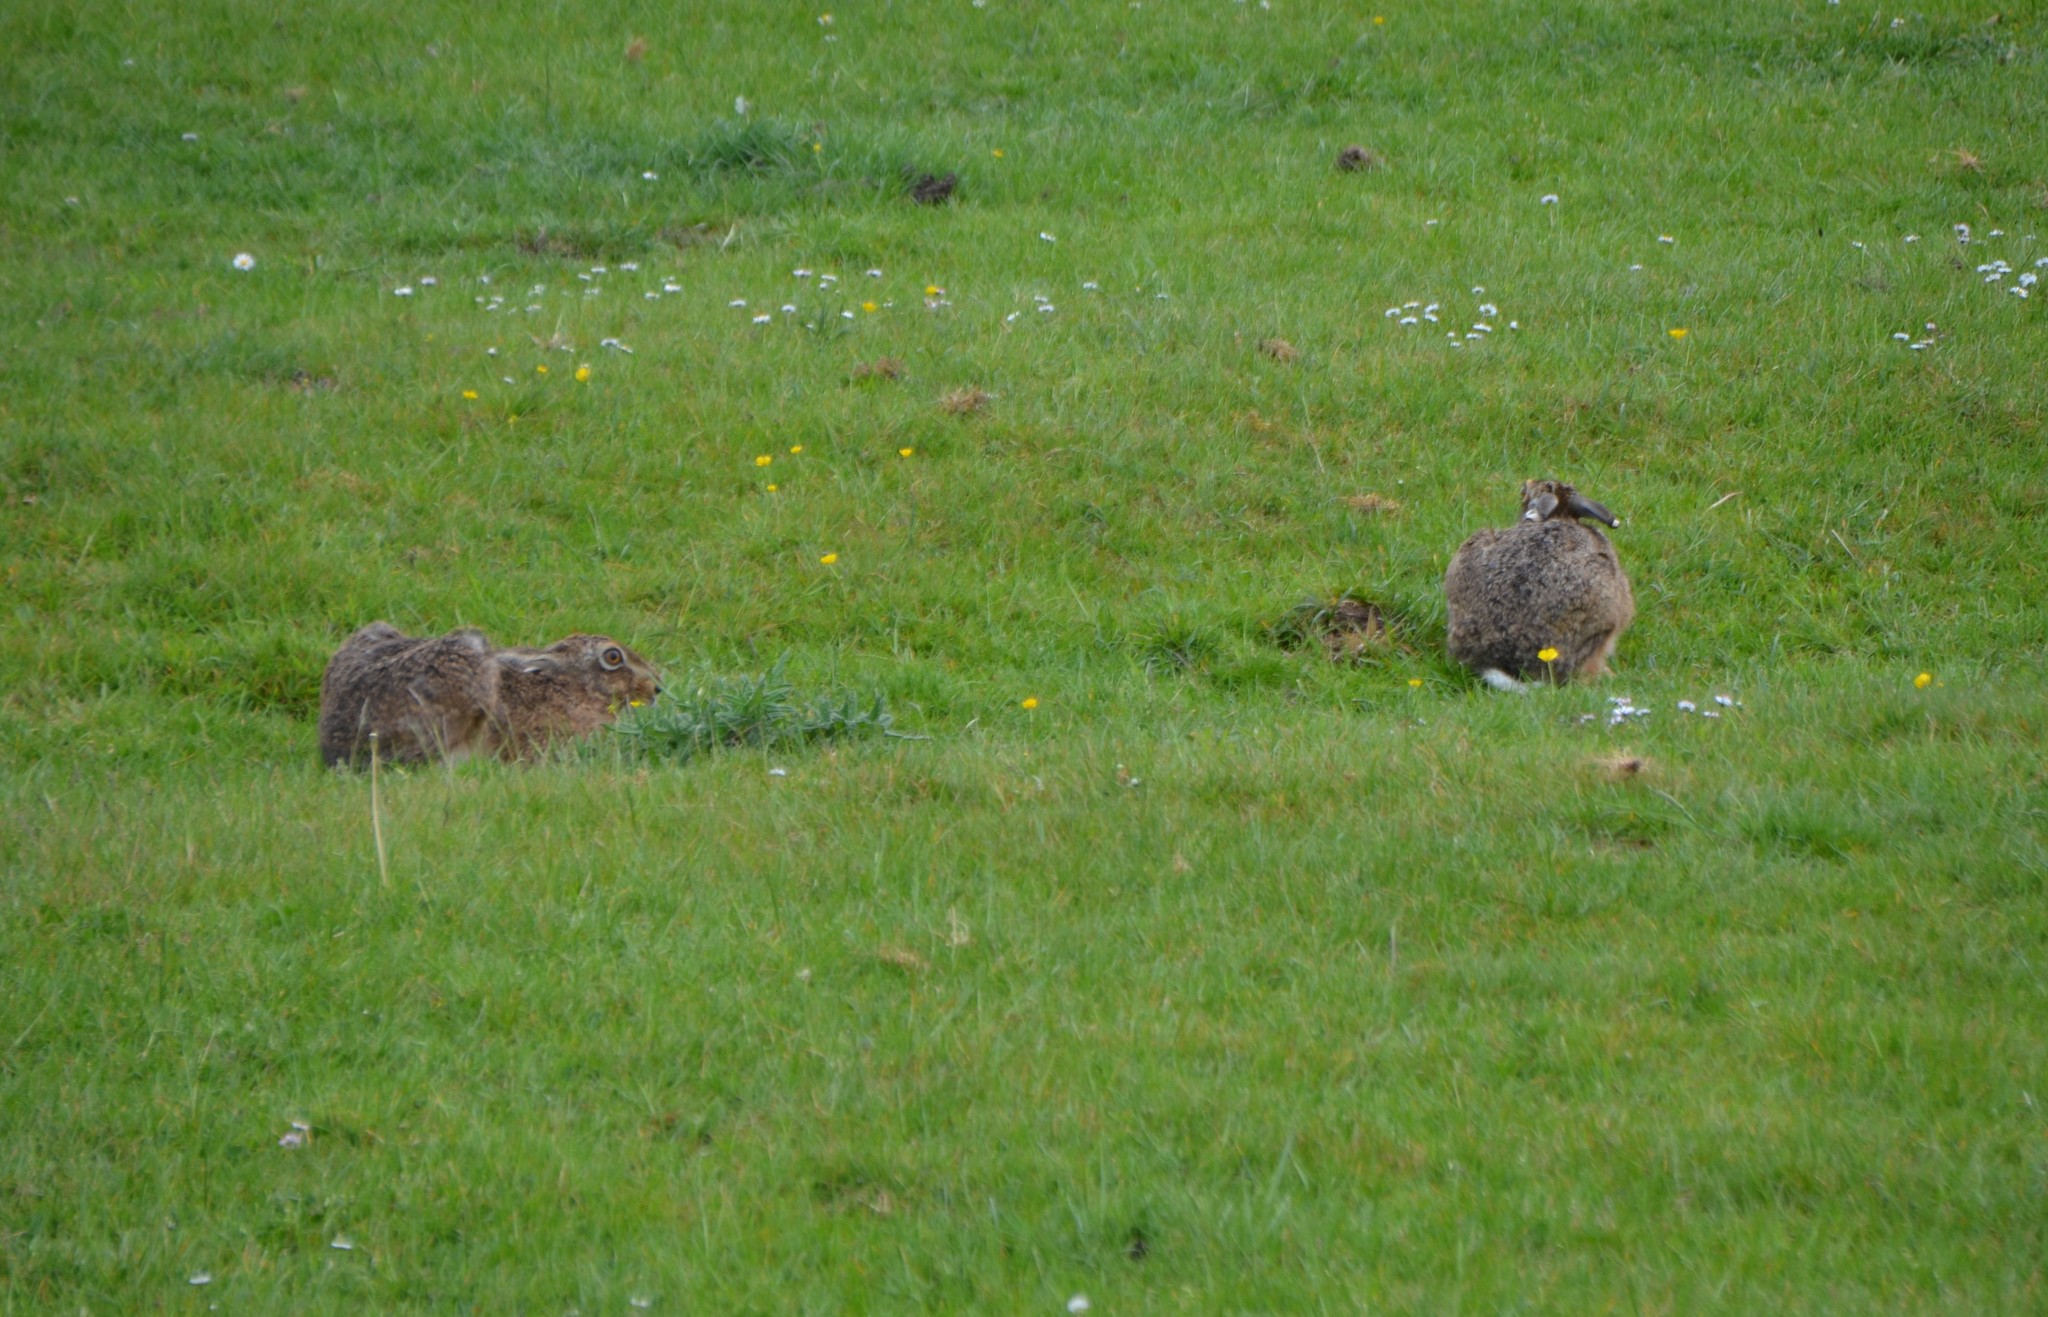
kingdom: Animalia
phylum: Chordata
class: Mammalia
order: Lagomorpha
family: Leporidae
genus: Lepus
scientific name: Lepus europaeus
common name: European hare
